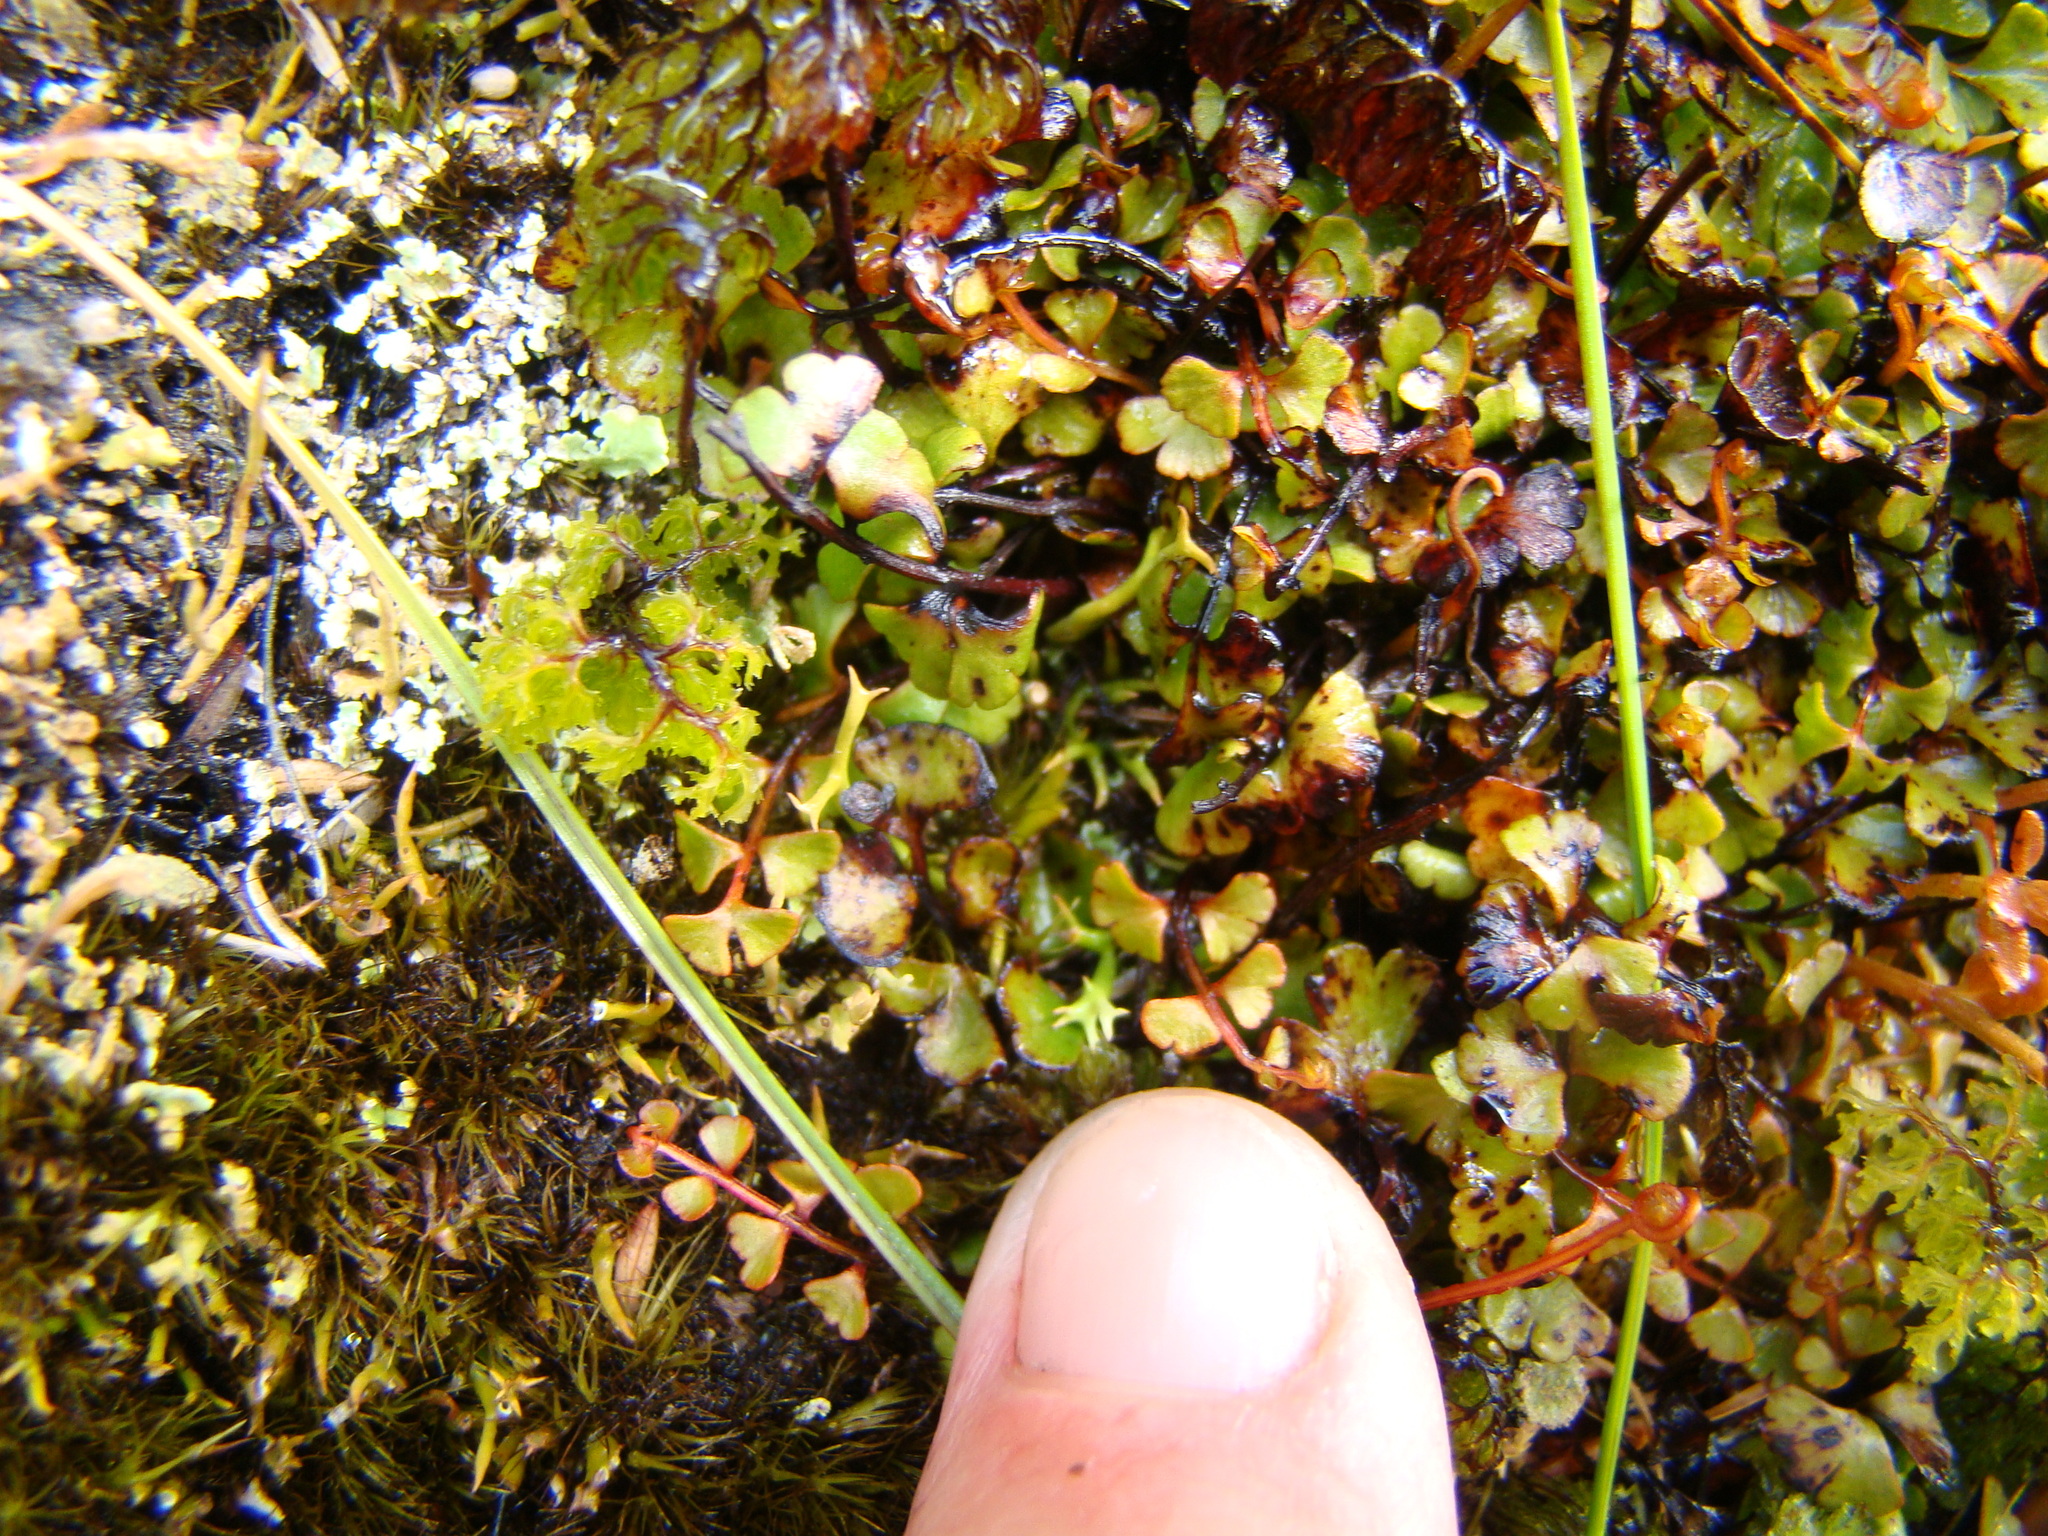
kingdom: Plantae
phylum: Tracheophyta
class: Polypodiopsida
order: Polypodiales
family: Lindsaeaceae
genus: Lindsaea
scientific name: Lindsaea linearis
